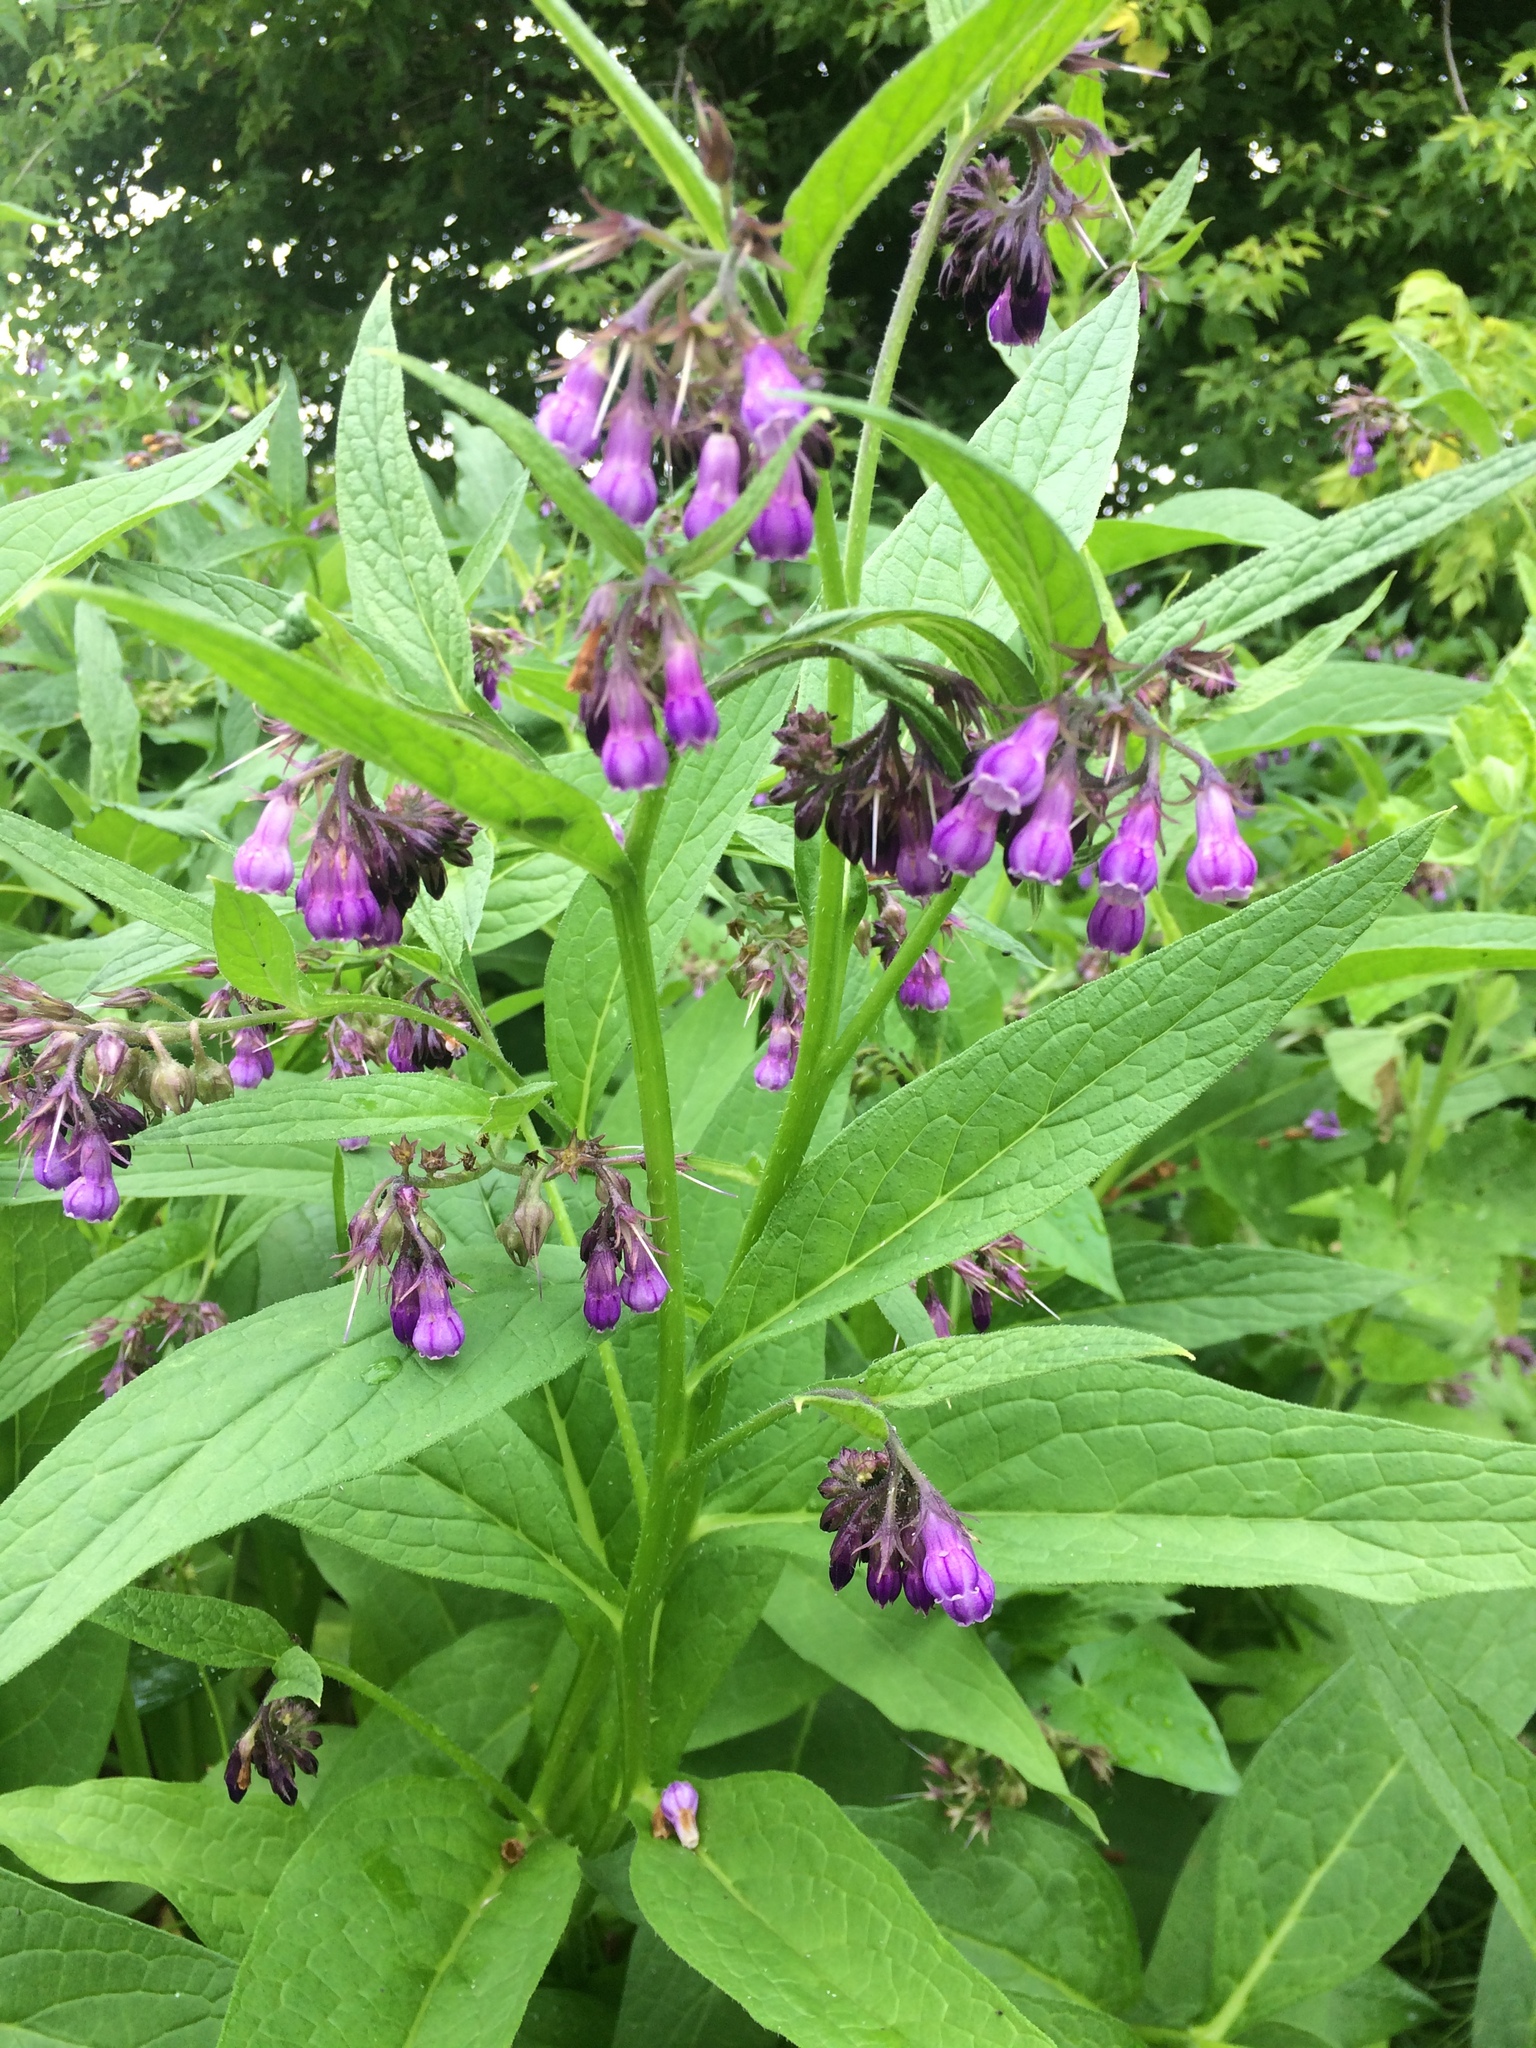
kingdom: Plantae
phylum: Tracheophyta
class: Magnoliopsida
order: Boraginales
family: Boraginaceae
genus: Symphytum
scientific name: Symphytum officinale
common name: Common comfrey
